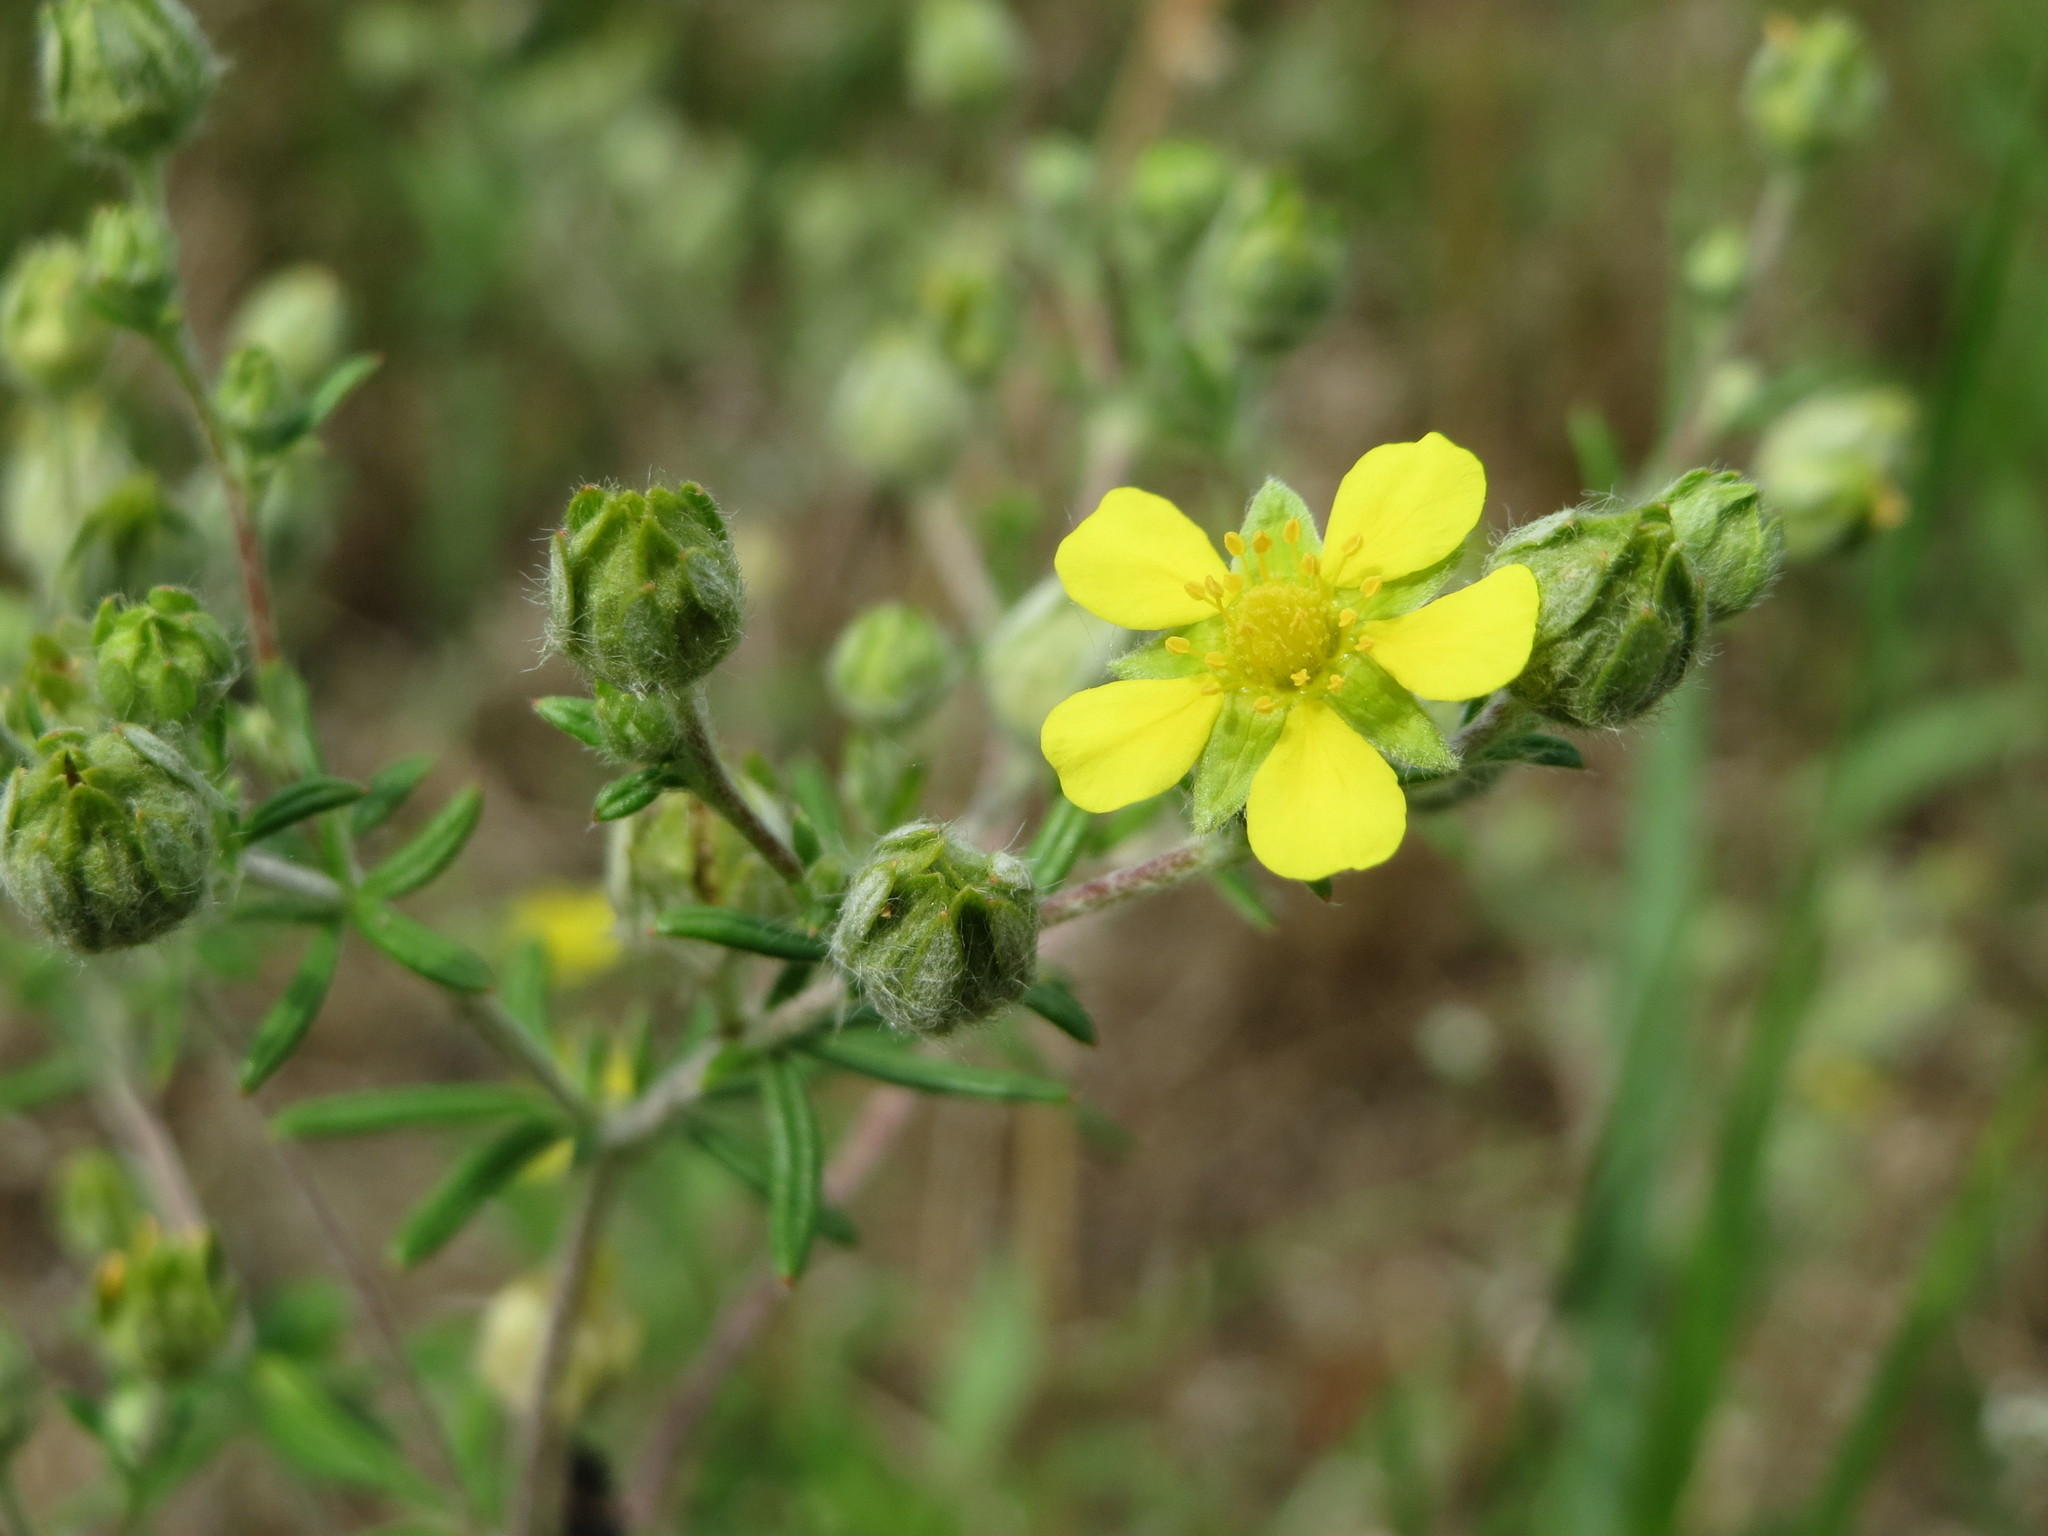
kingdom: Plantae
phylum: Tracheophyta
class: Magnoliopsida
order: Rosales
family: Rosaceae
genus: Potentilla
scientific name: Potentilla argentea
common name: Hoary cinquefoil
